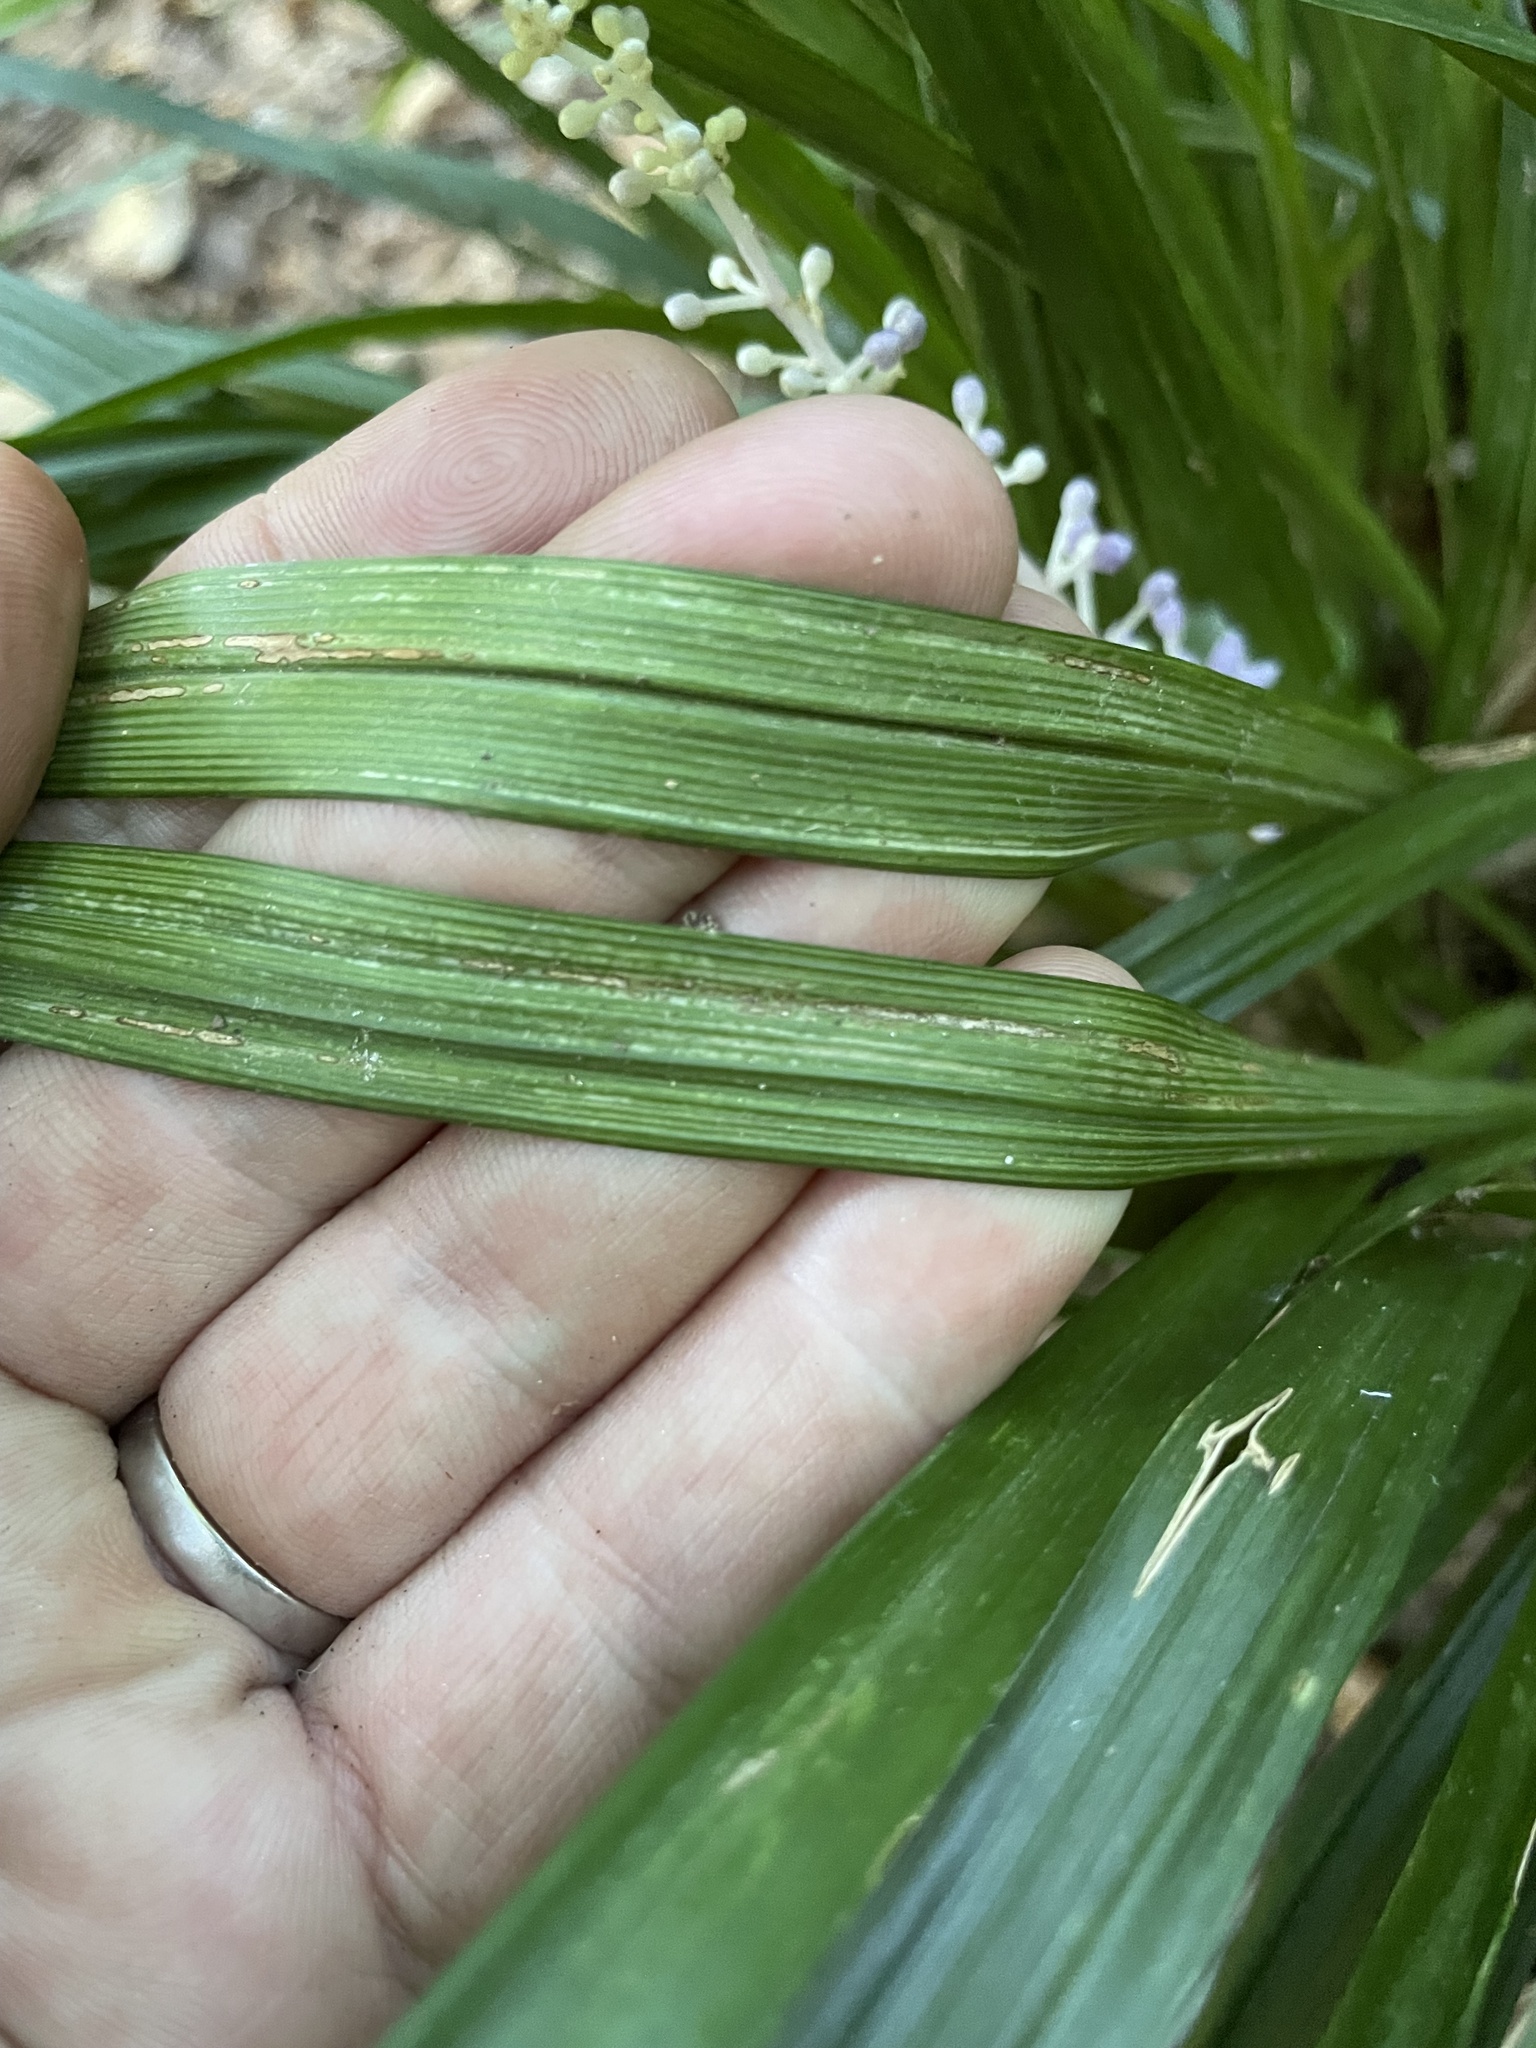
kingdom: Plantae
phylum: Tracheophyta
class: Liliopsida
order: Asparagales
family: Asparagaceae
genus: Liriope
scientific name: Liriope muscari
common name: Big blue lilyturf
